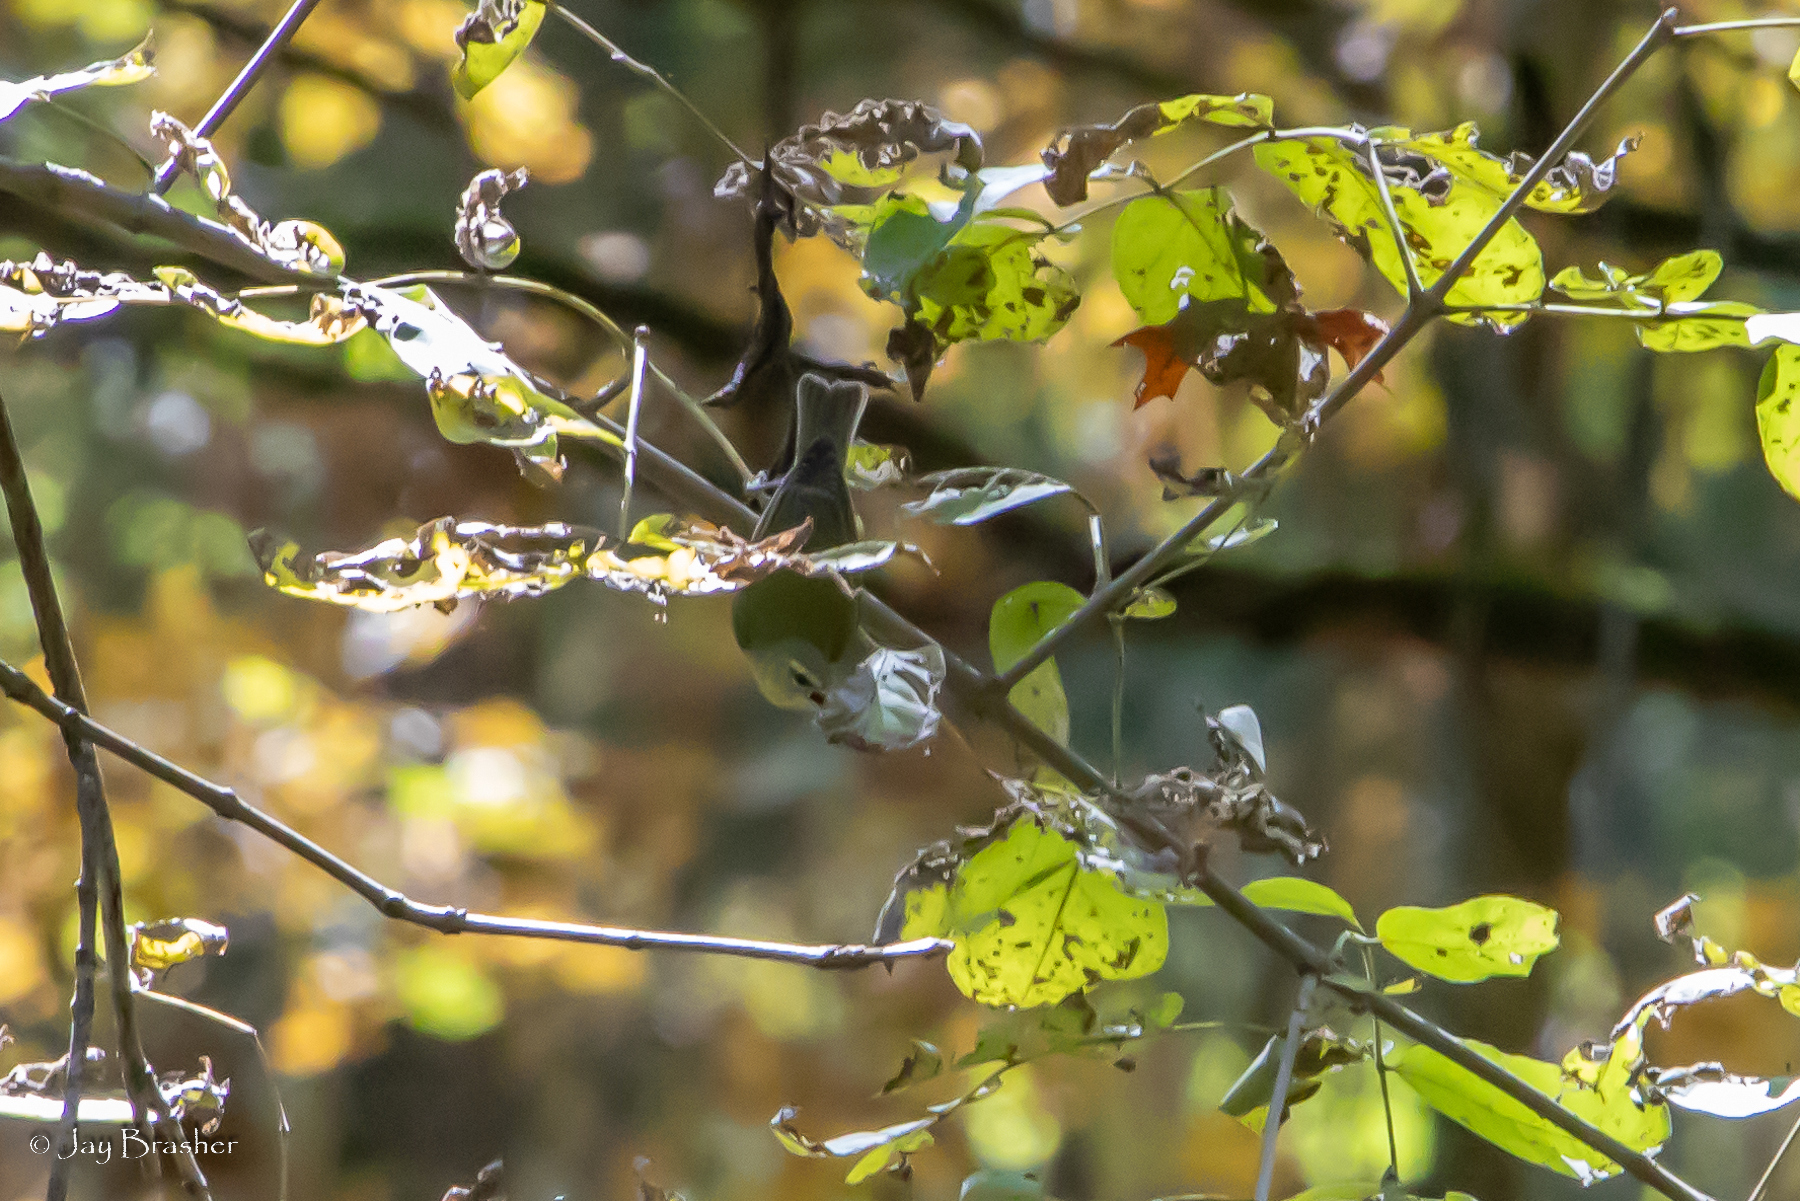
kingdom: Animalia
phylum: Chordata
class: Aves
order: Passeriformes
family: Parulidae
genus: Leiothlypis
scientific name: Leiothlypis peregrina
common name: Tennessee warbler
